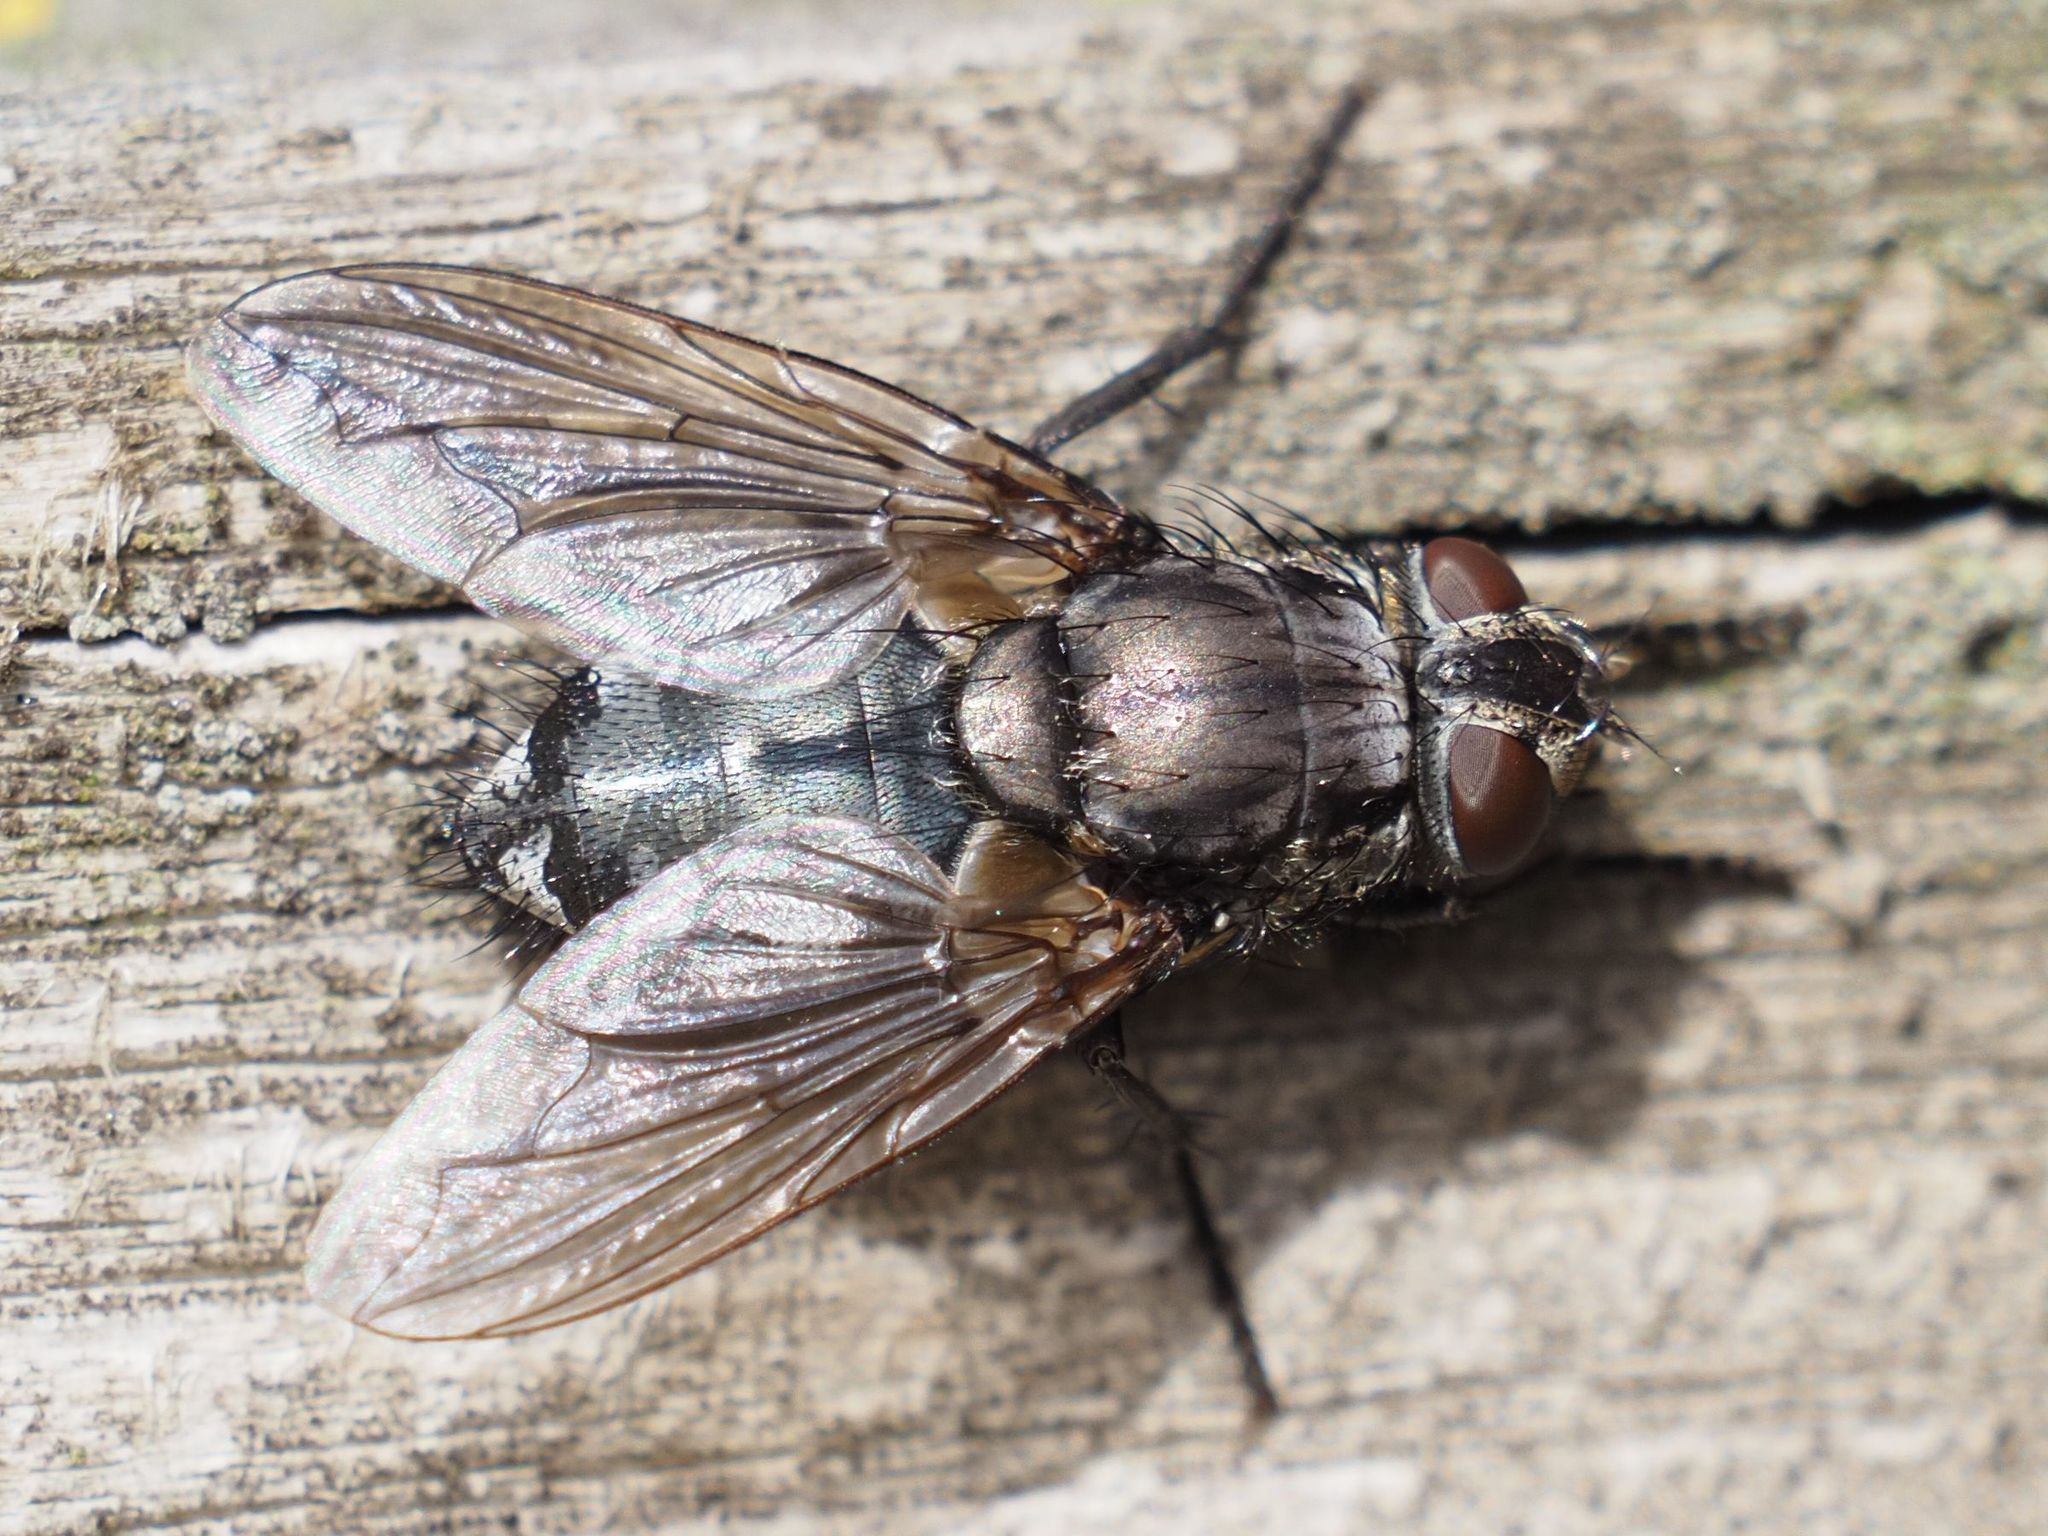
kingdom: Animalia
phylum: Arthropoda
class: Insecta
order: Diptera
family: Polleniidae
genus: Pollenia
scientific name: Pollenia vagabunda
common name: Vagabund cluster fly
